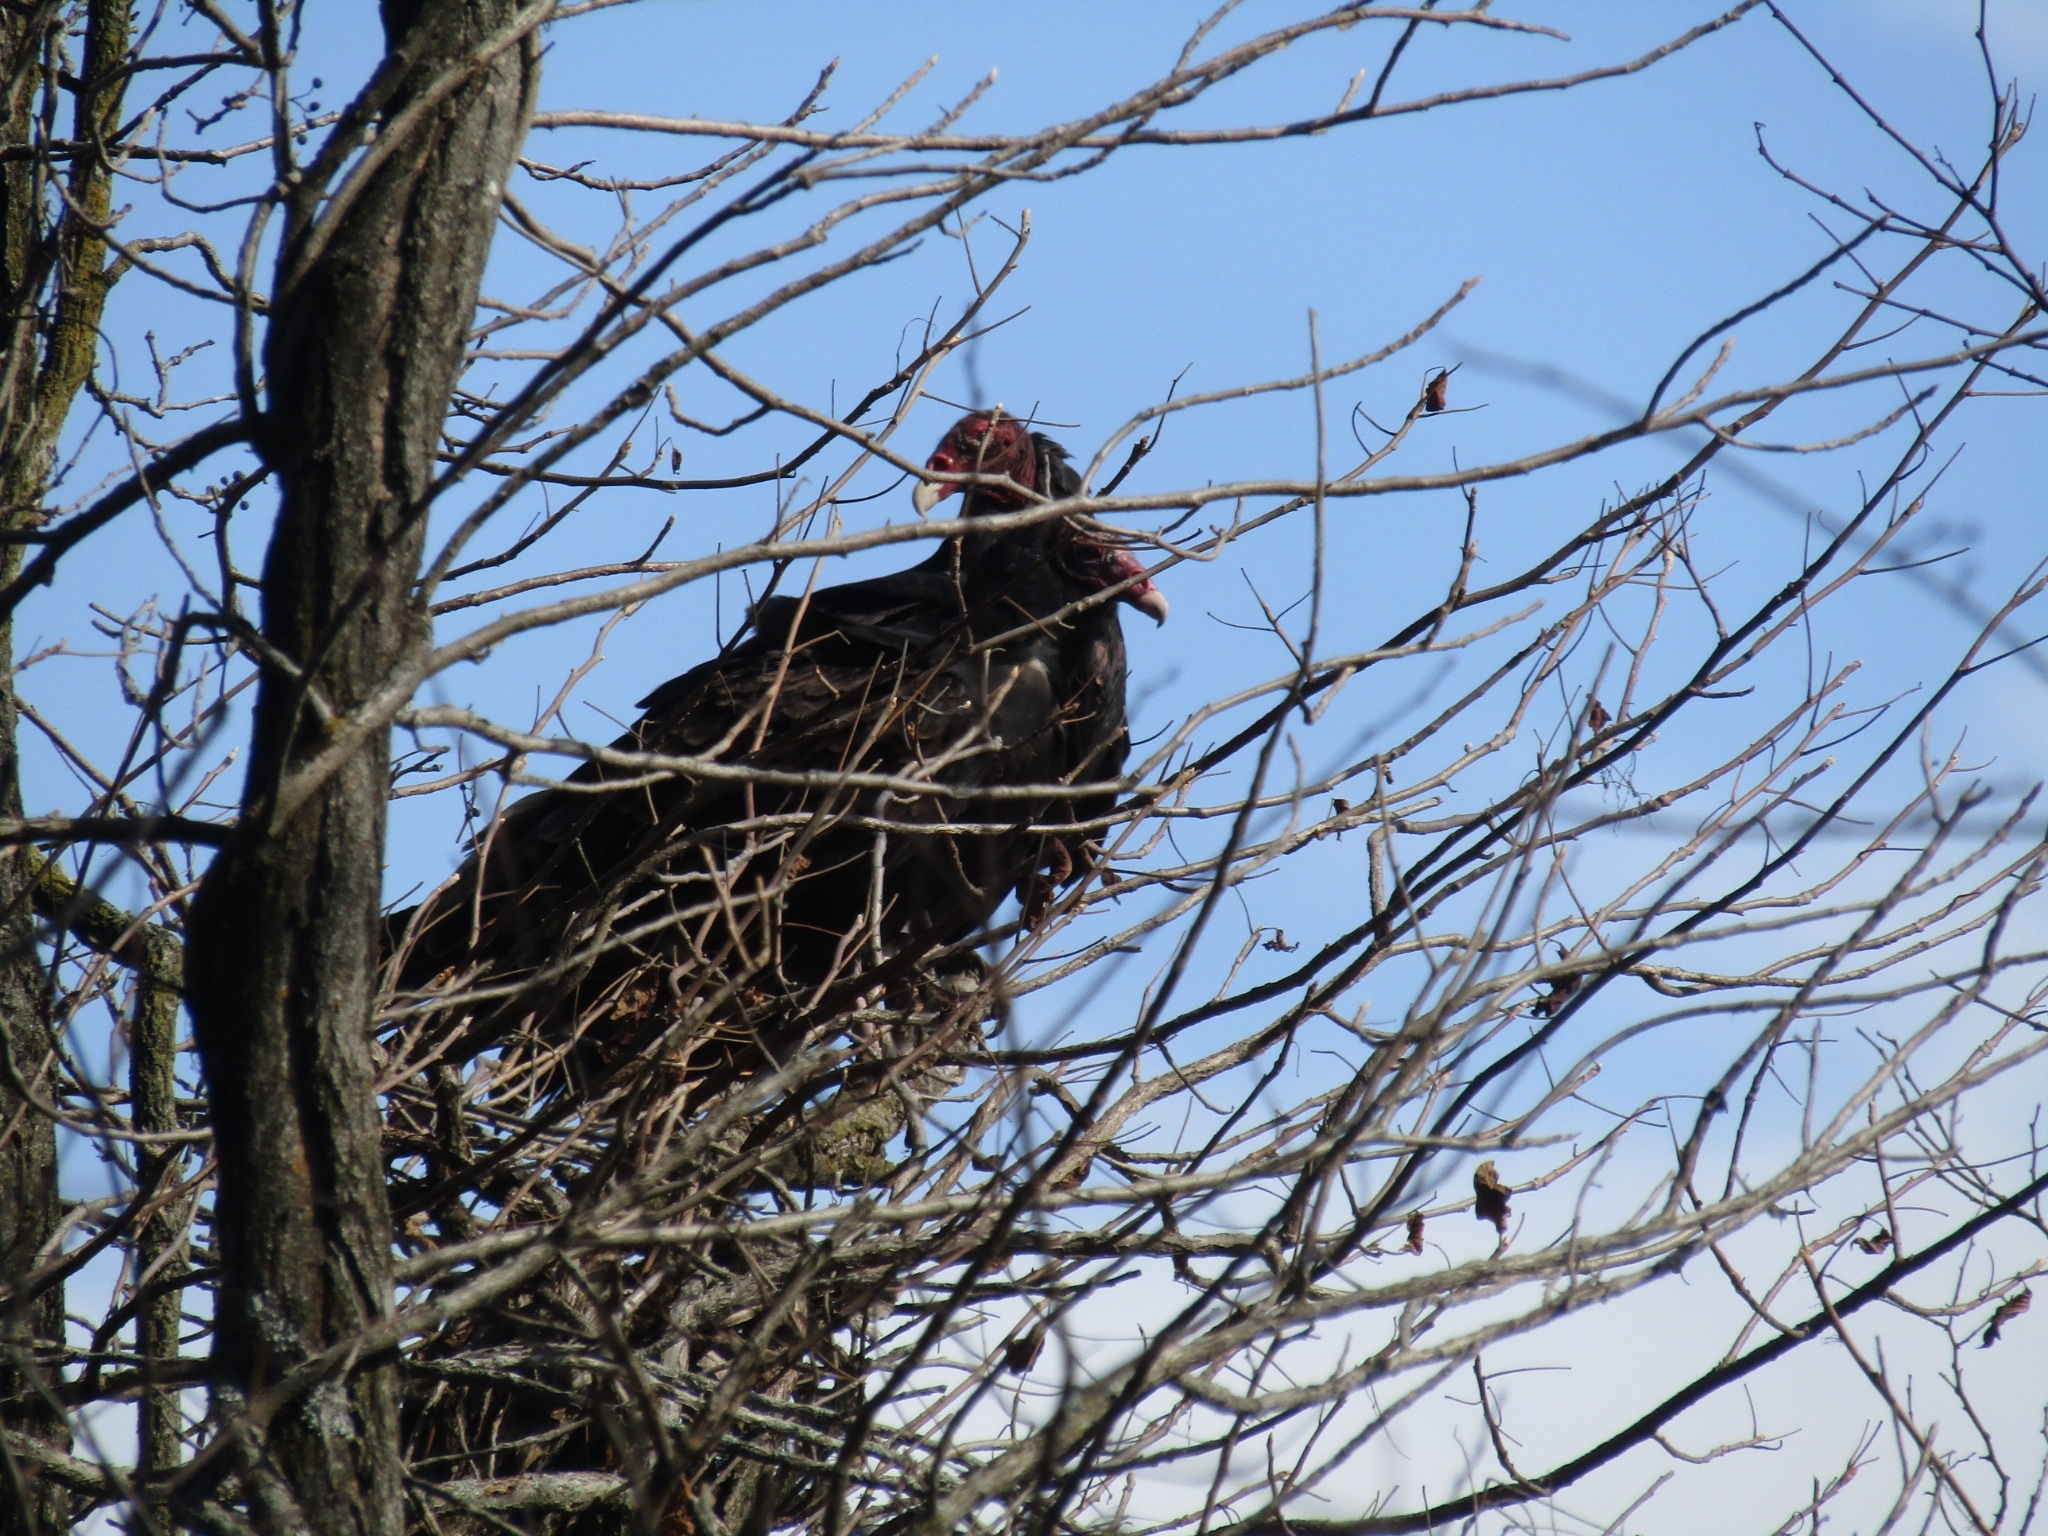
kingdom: Animalia
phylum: Chordata
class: Aves
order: Accipitriformes
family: Cathartidae
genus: Cathartes
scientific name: Cathartes aura
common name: Turkey vulture
